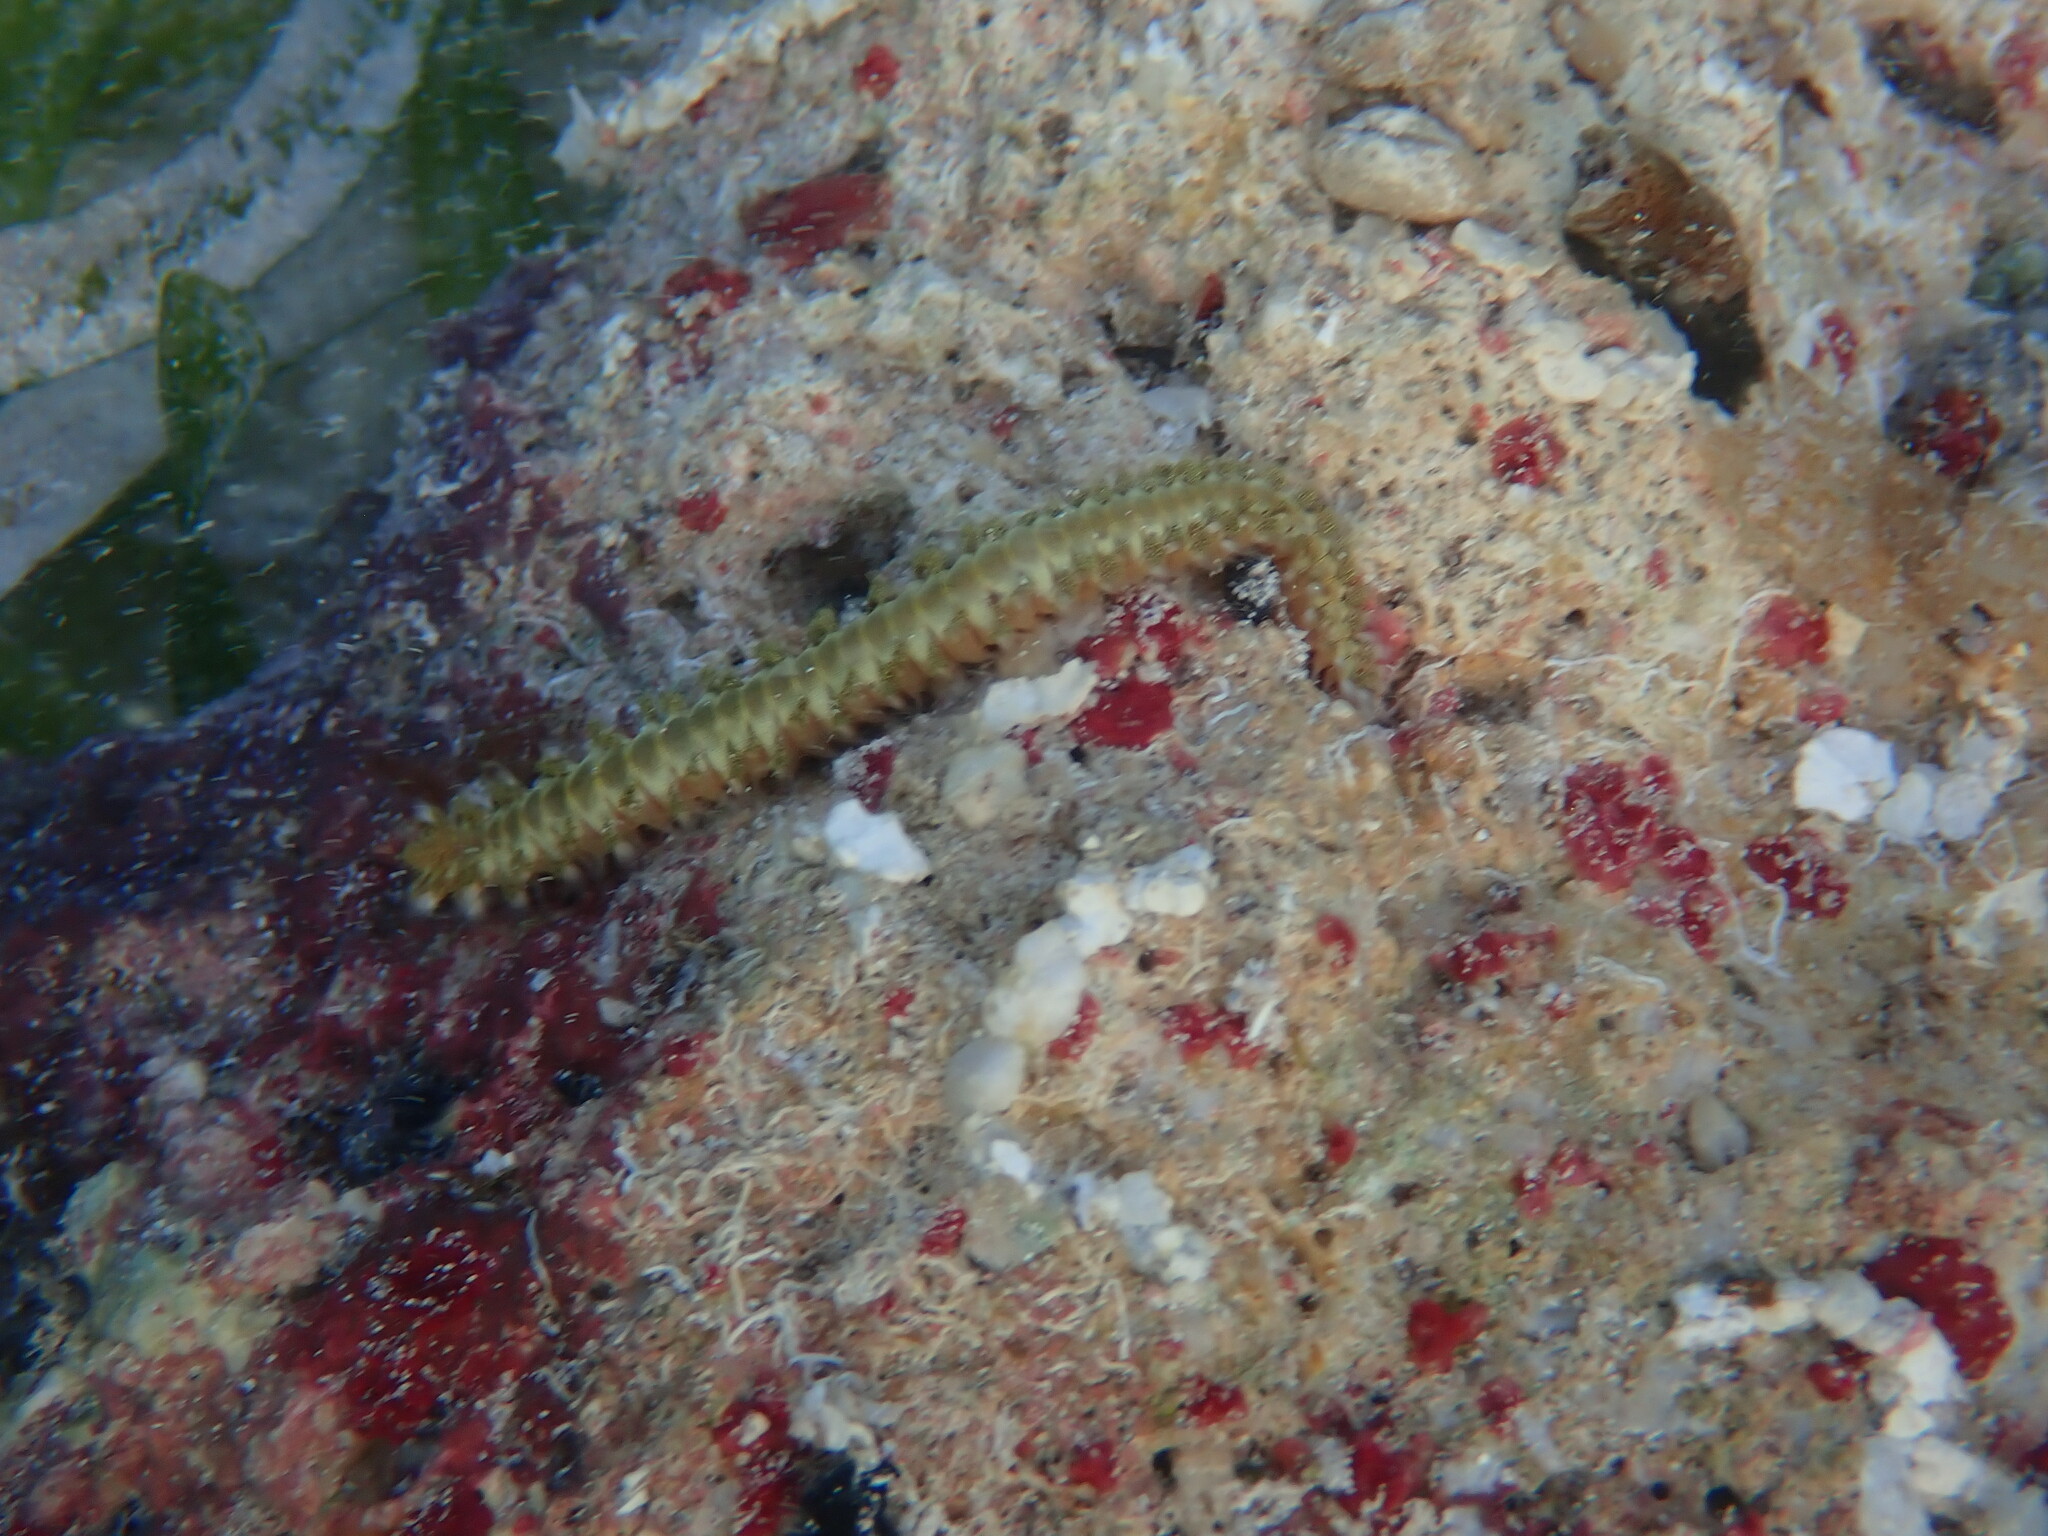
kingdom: Animalia
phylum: Annelida
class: Polychaeta
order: Amphinomida
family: Amphinomidae
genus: Hermodice
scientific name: Hermodice carunculata
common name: Bearded fireworm
